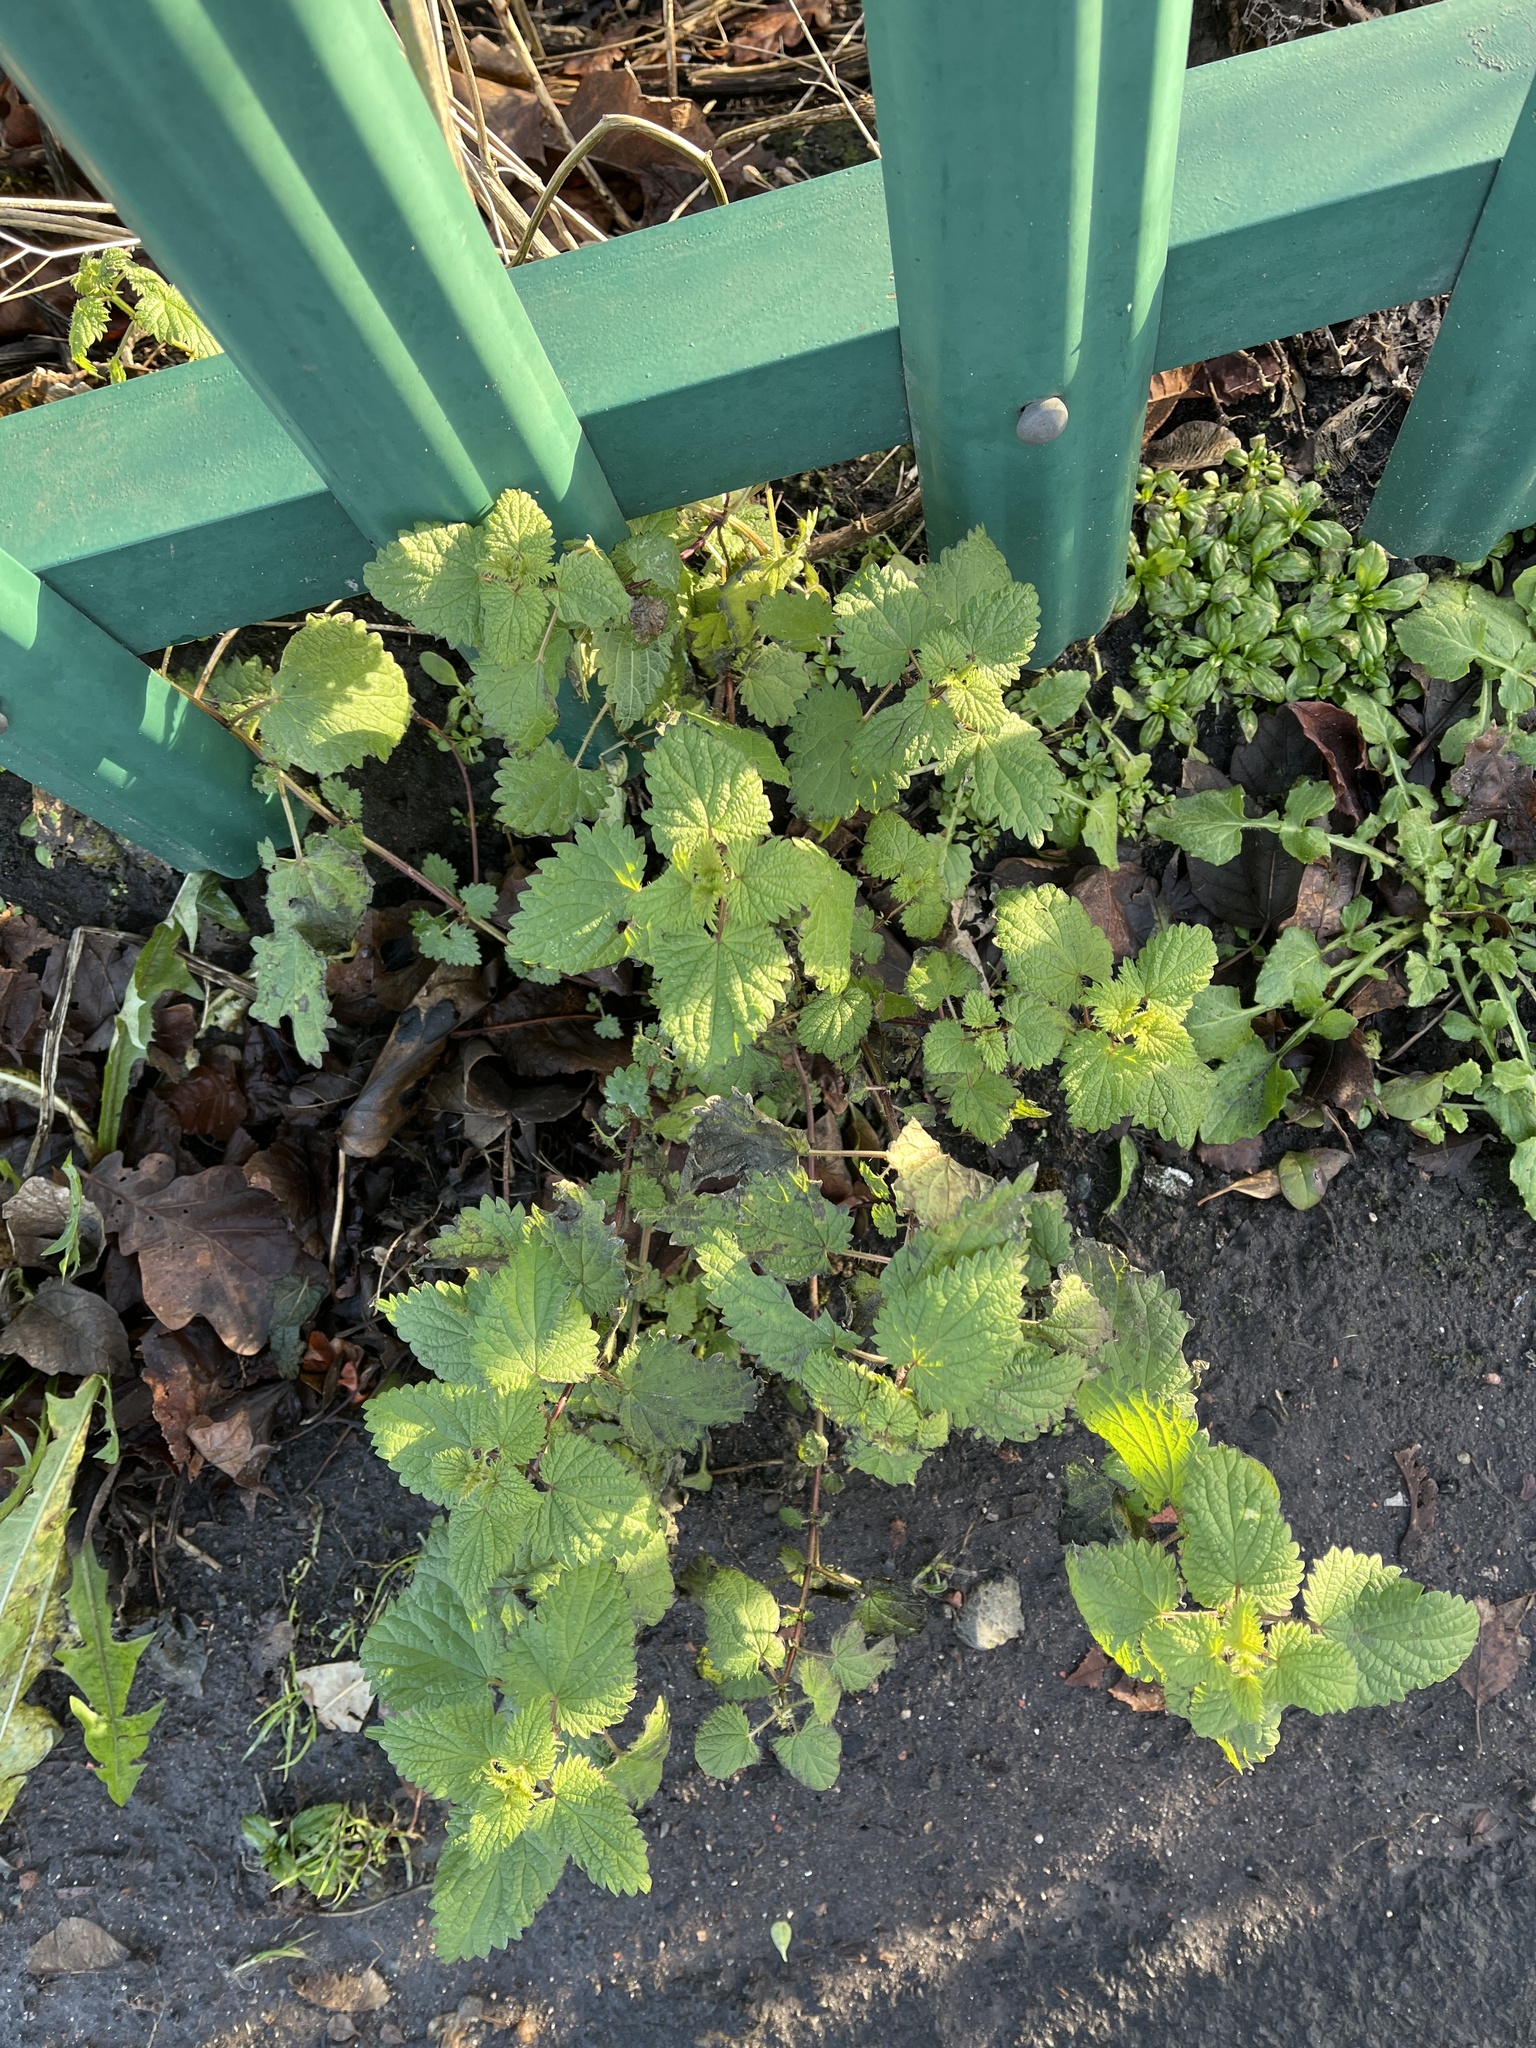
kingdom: Plantae
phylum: Tracheophyta
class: Magnoliopsida
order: Rosales
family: Urticaceae
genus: Urtica
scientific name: Urtica dioica
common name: Common nettle
